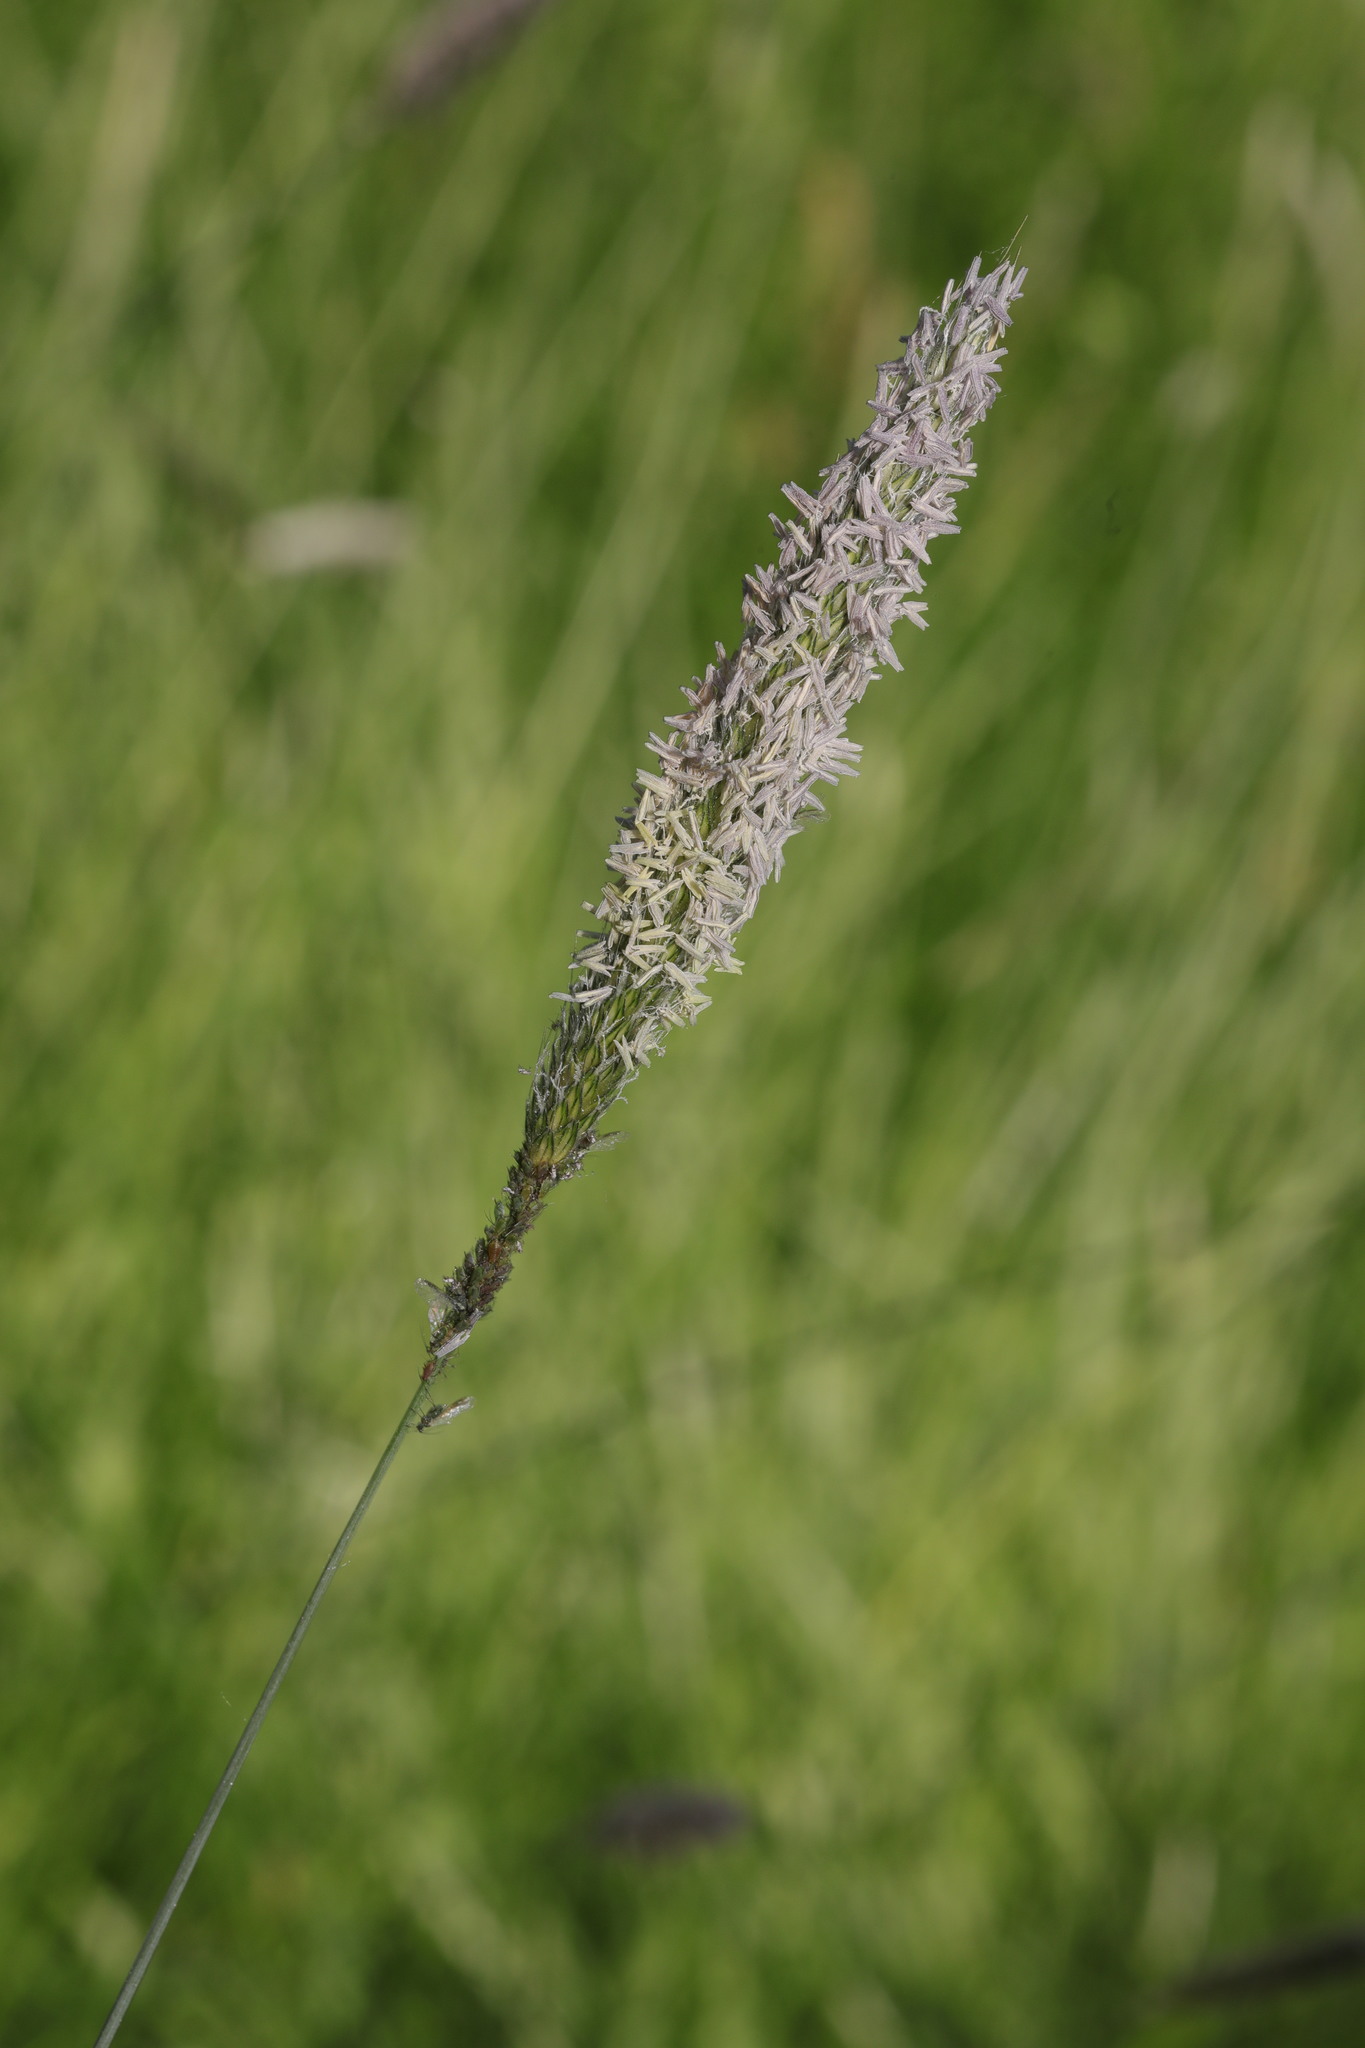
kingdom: Plantae
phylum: Tracheophyta
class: Liliopsida
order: Poales
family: Poaceae
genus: Alopecurus
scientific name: Alopecurus pratensis
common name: Meadow foxtail
